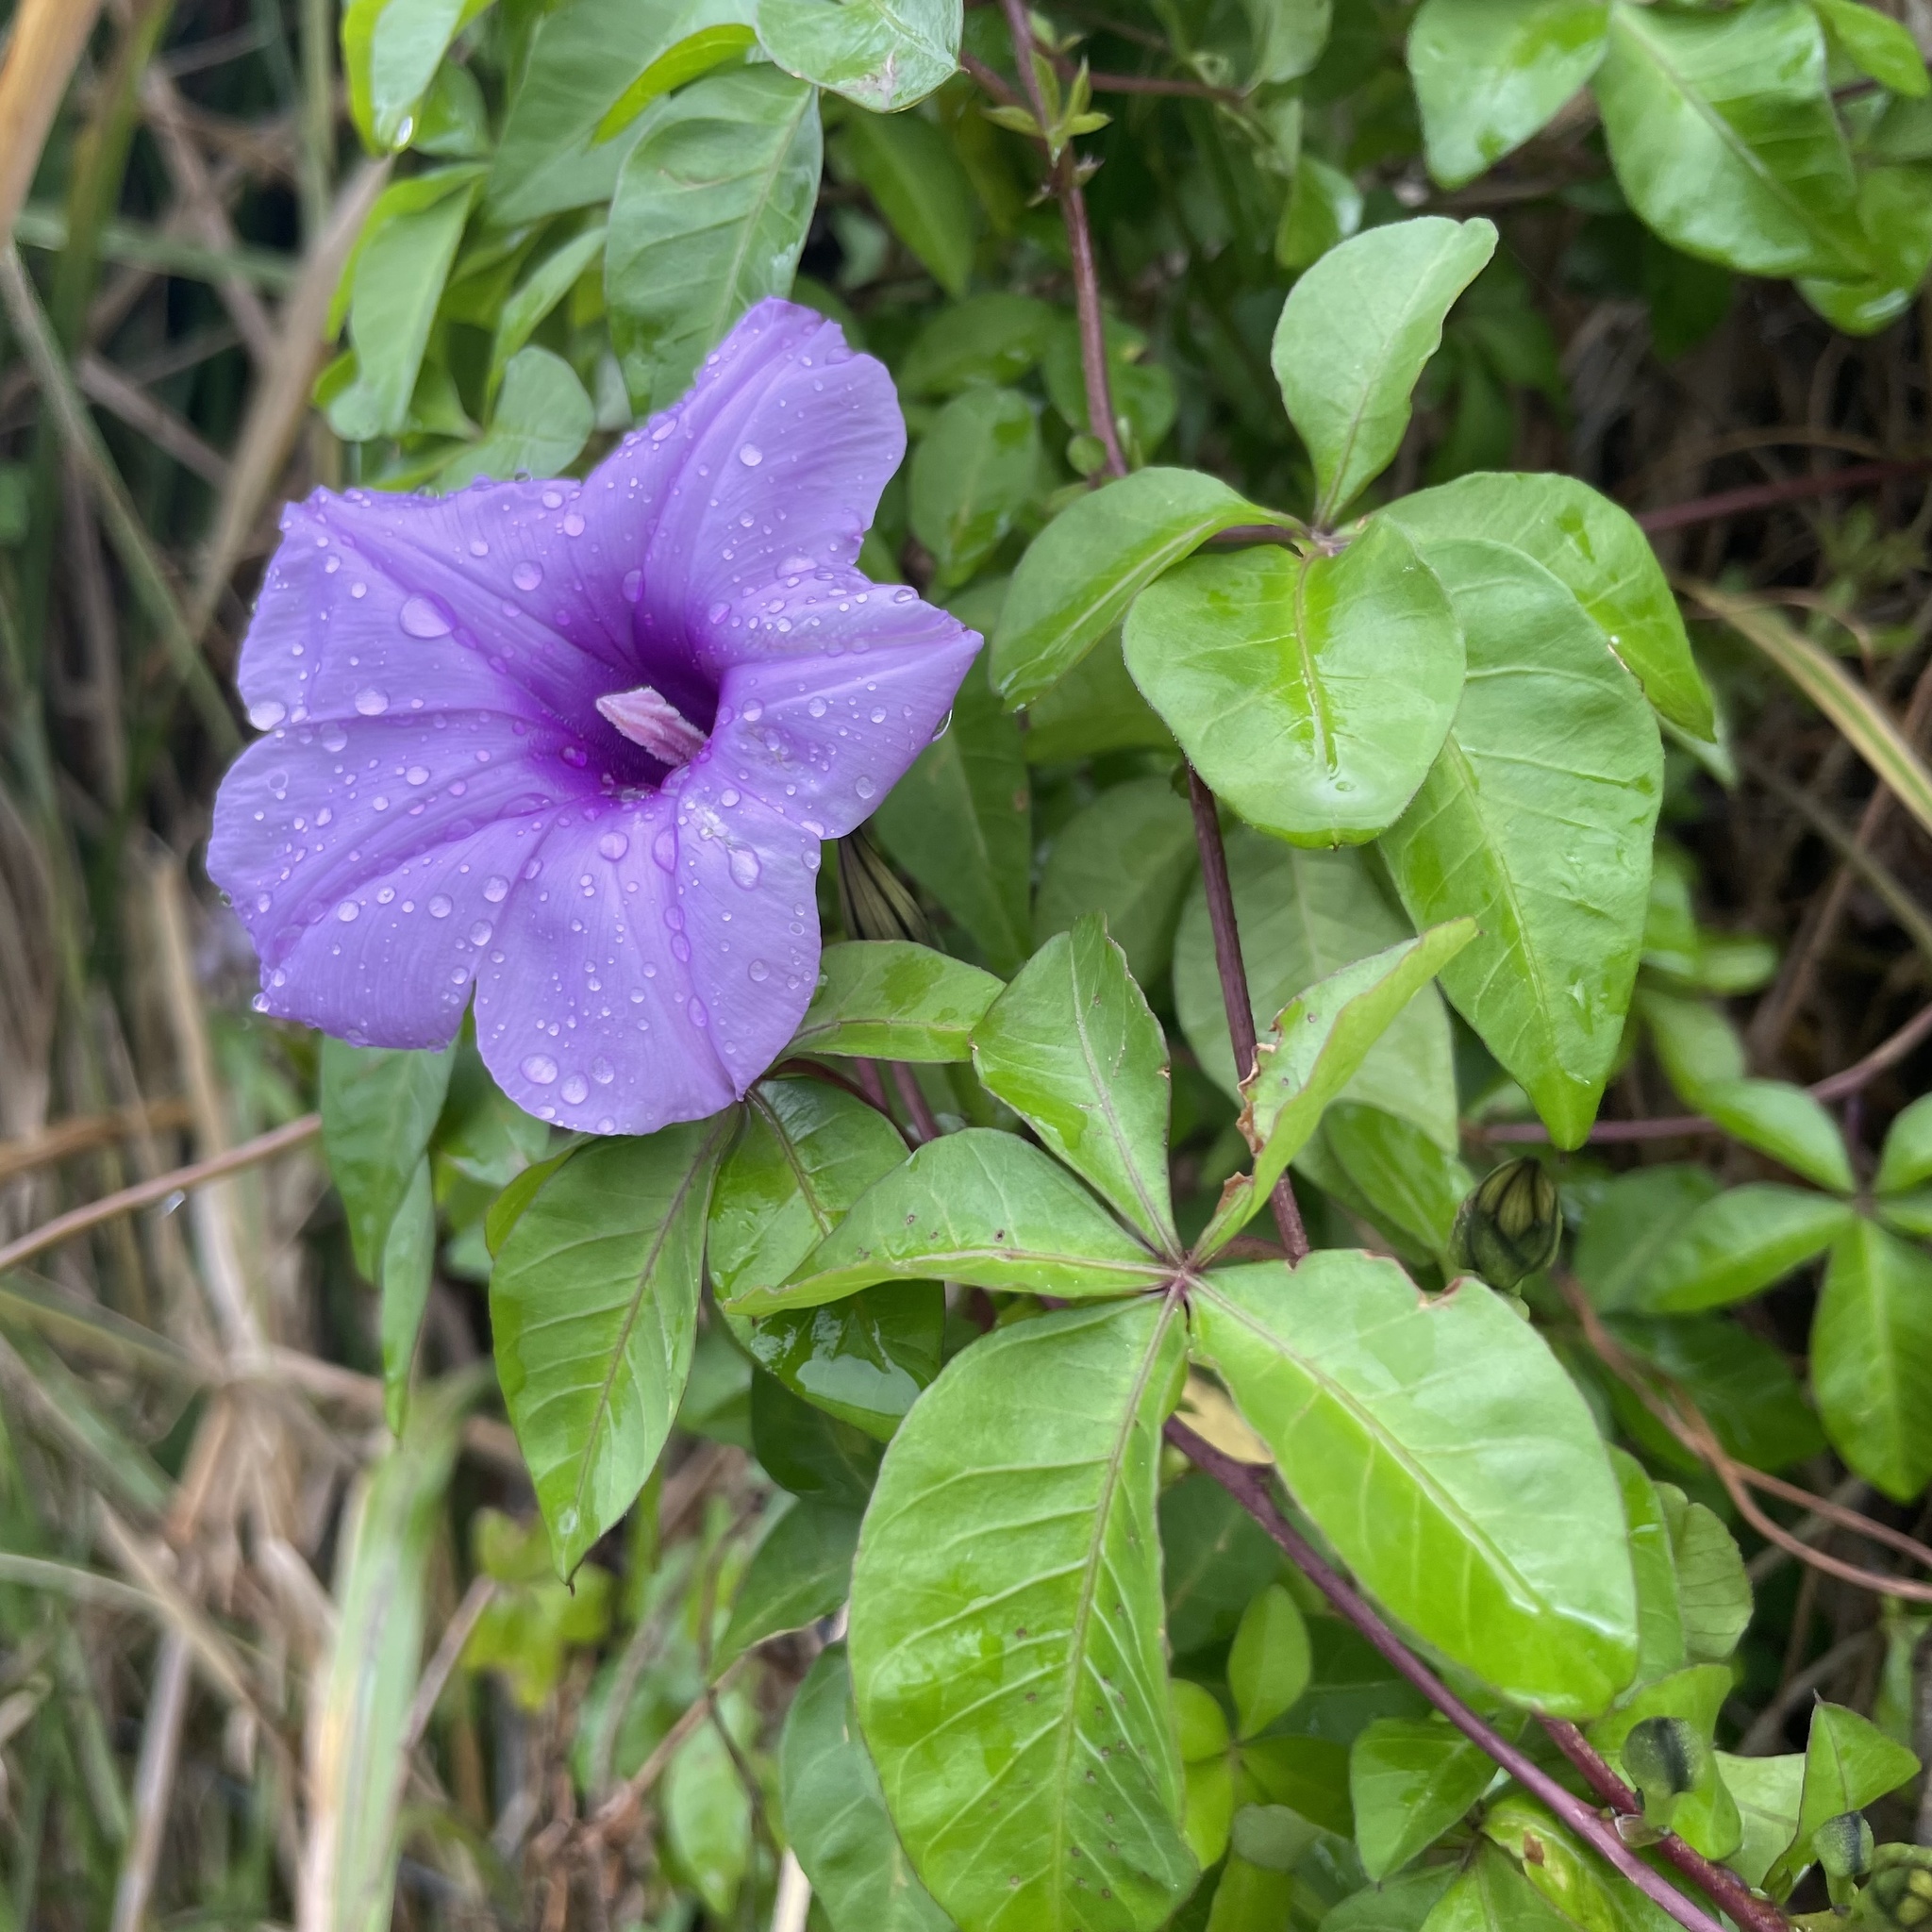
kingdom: Plantae
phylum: Tracheophyta
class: Magnoliopsida
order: Solanales
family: Convolvulaceae
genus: Ipomoea
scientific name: Ipomoea cairica
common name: Mile a minute vine
